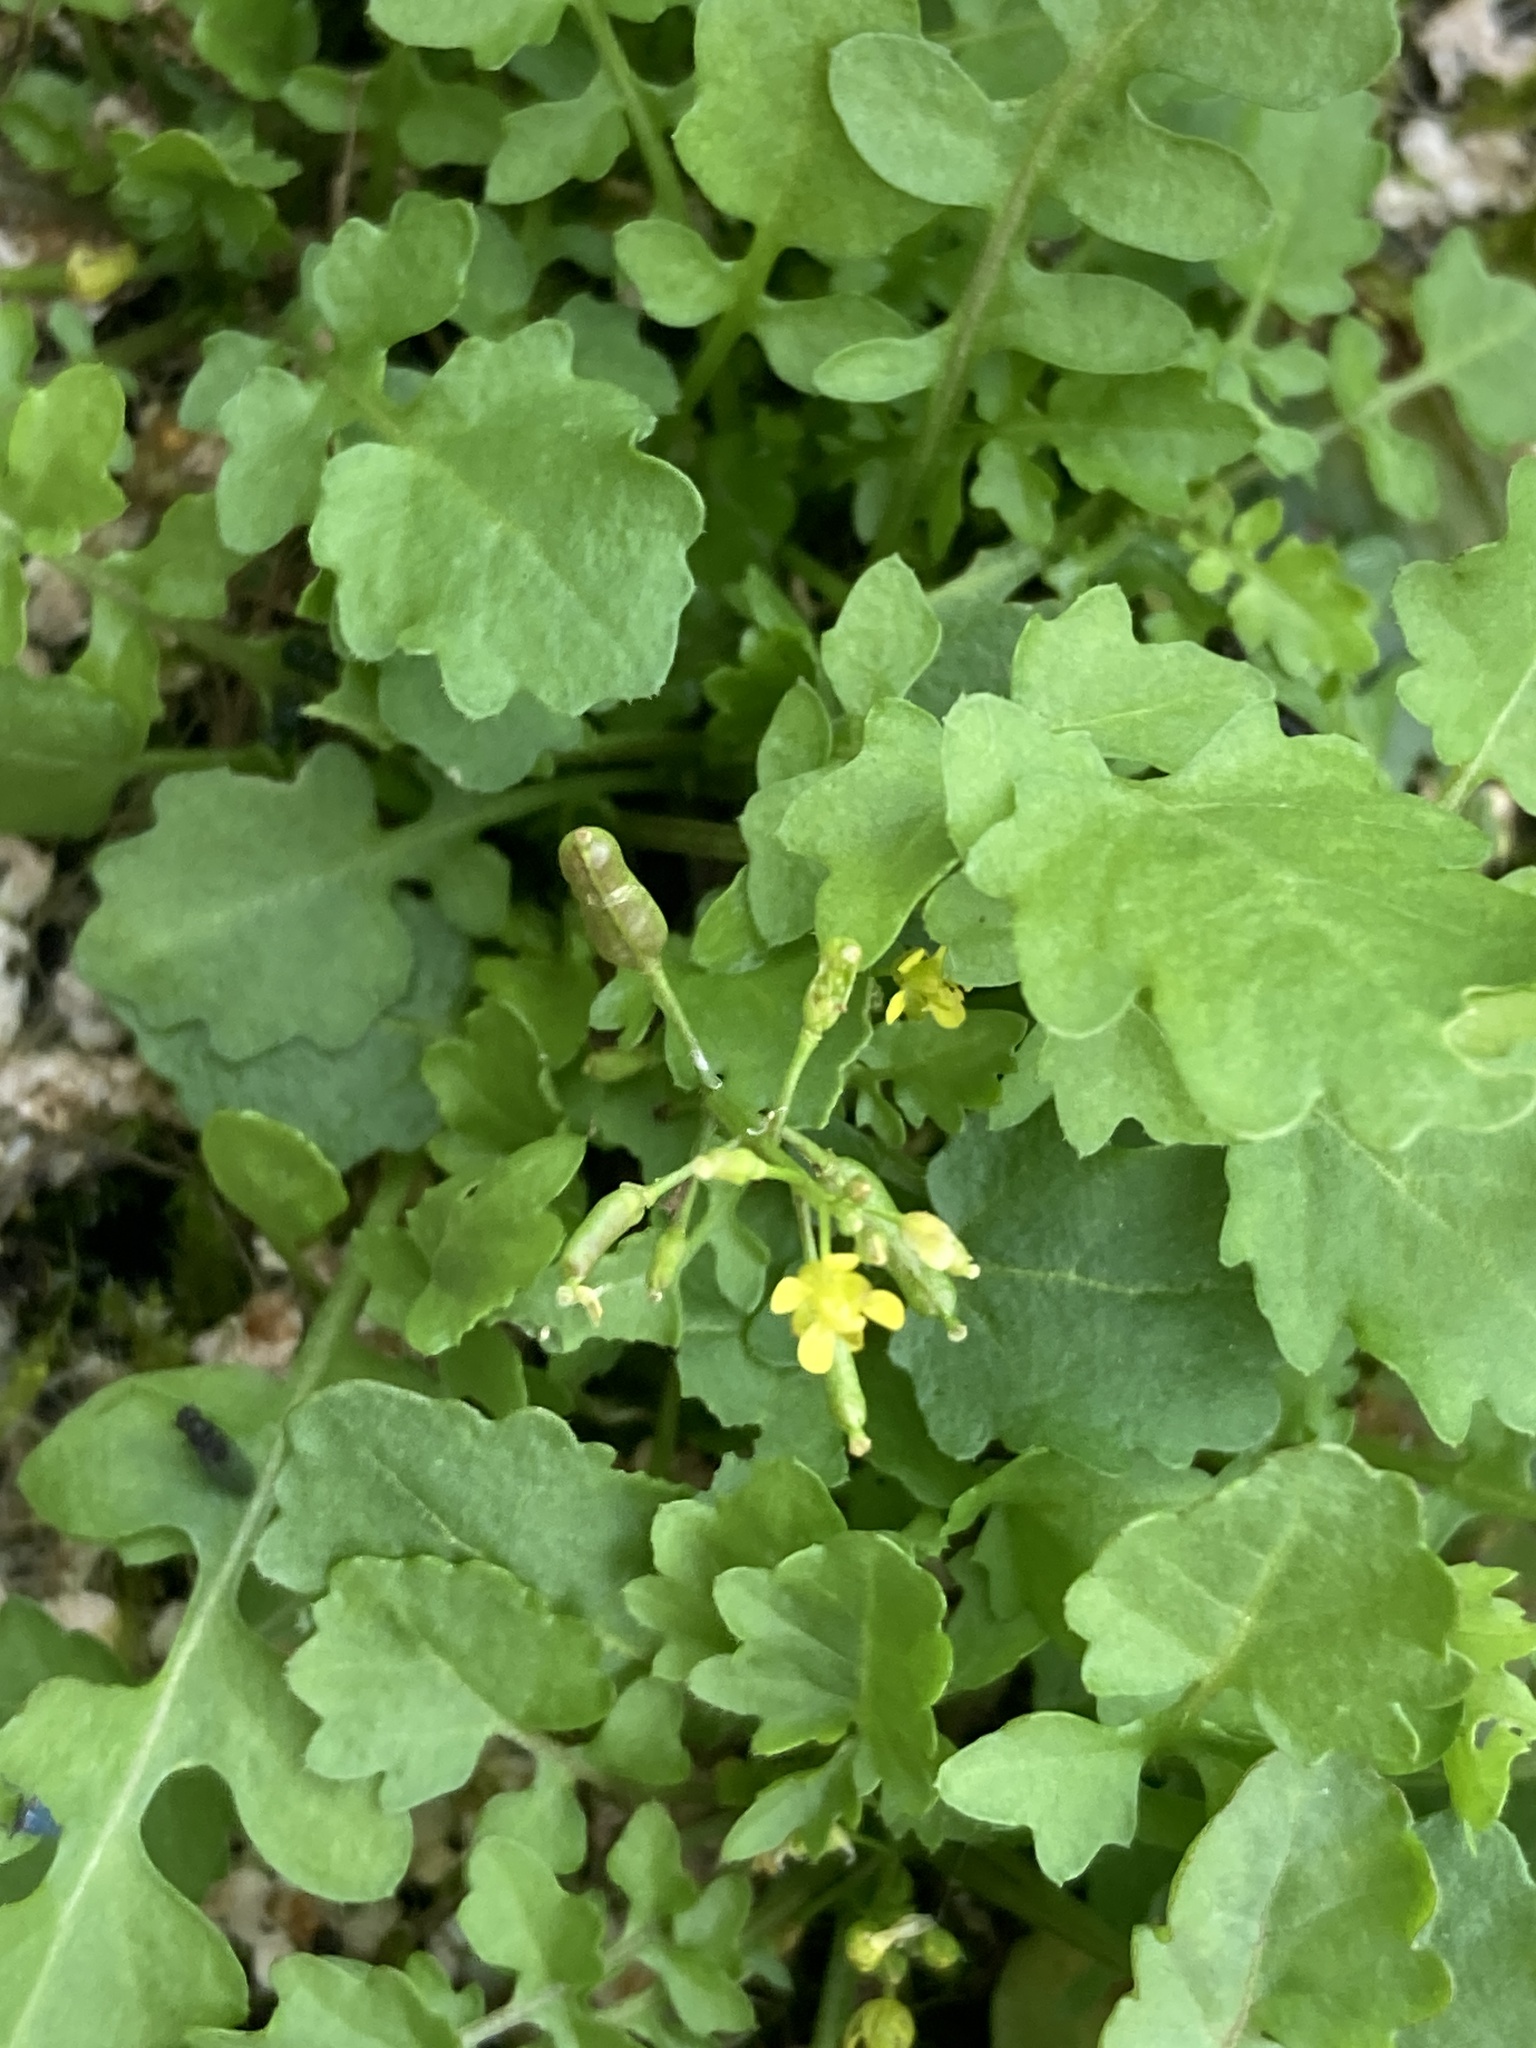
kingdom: Plantae
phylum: Tracheophyta
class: Magnoliopsida
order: Brassicales
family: Brassicaceae
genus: Rorippa
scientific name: Rorippa palustris
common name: Marsh yellow-cress
